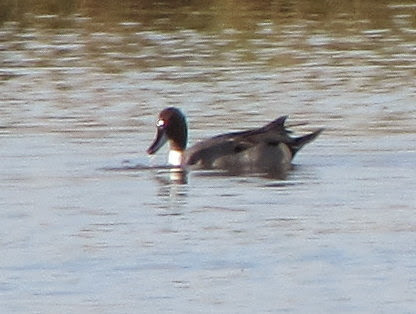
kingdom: Animalia
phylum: Chordata
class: Aves
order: Anseriformes
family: Anatidae
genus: Anas
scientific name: Anas acuta
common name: Northern pintail
